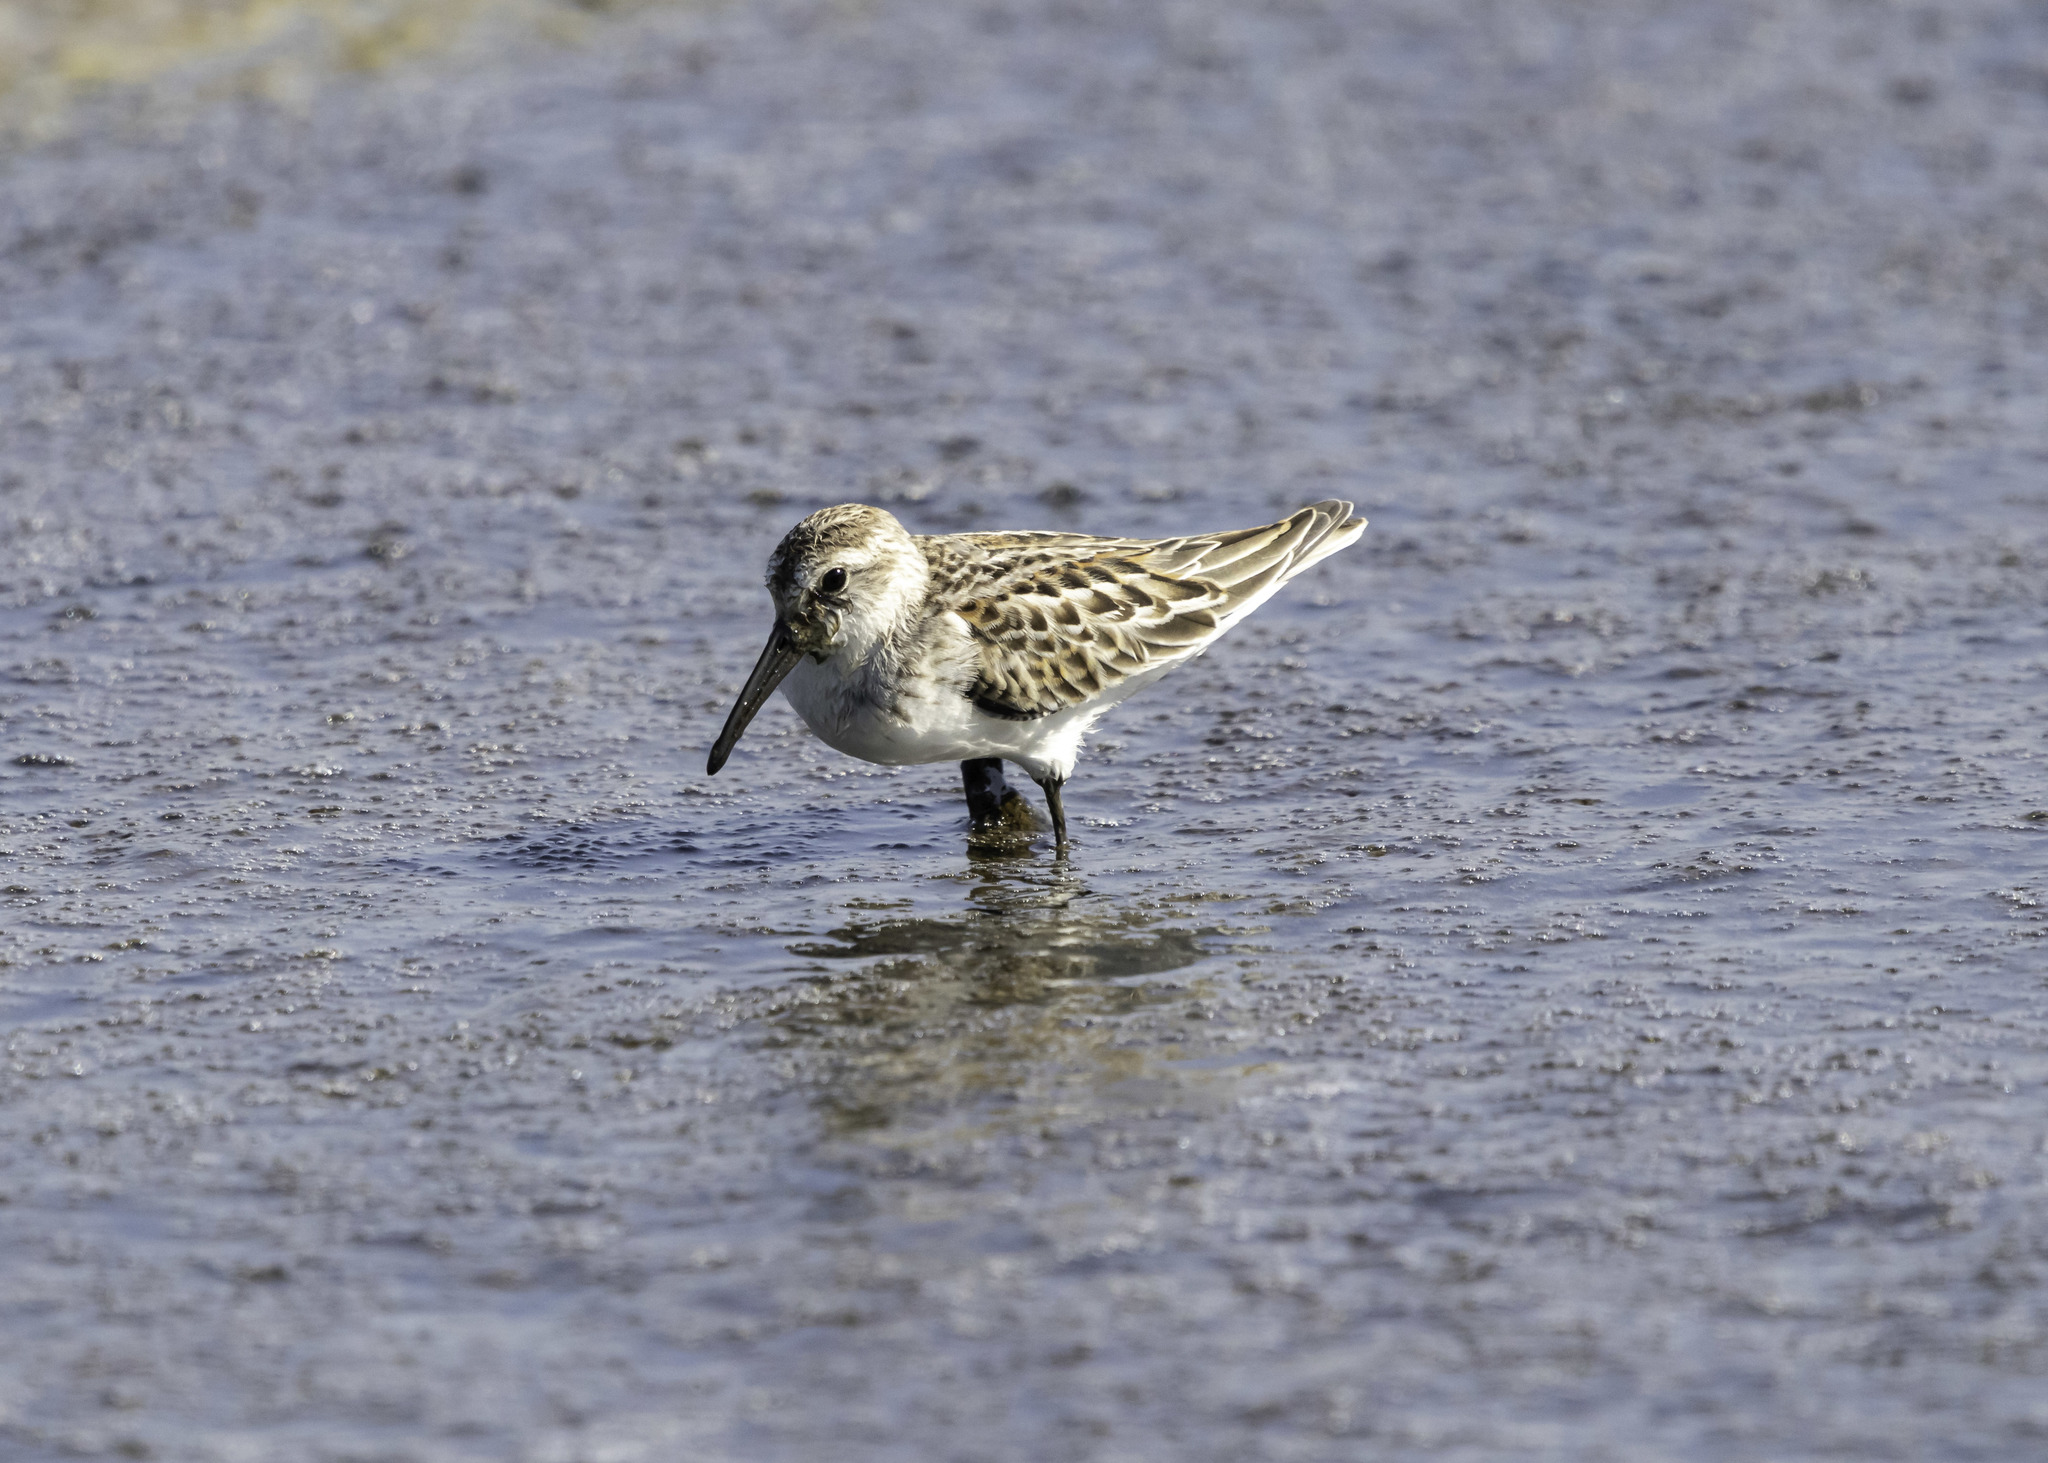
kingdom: Animalia
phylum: Chordata
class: Aves
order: Charadriiformes
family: Scolopacidae
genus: Calidris
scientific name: Calidris mauri
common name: Western sandpiper
